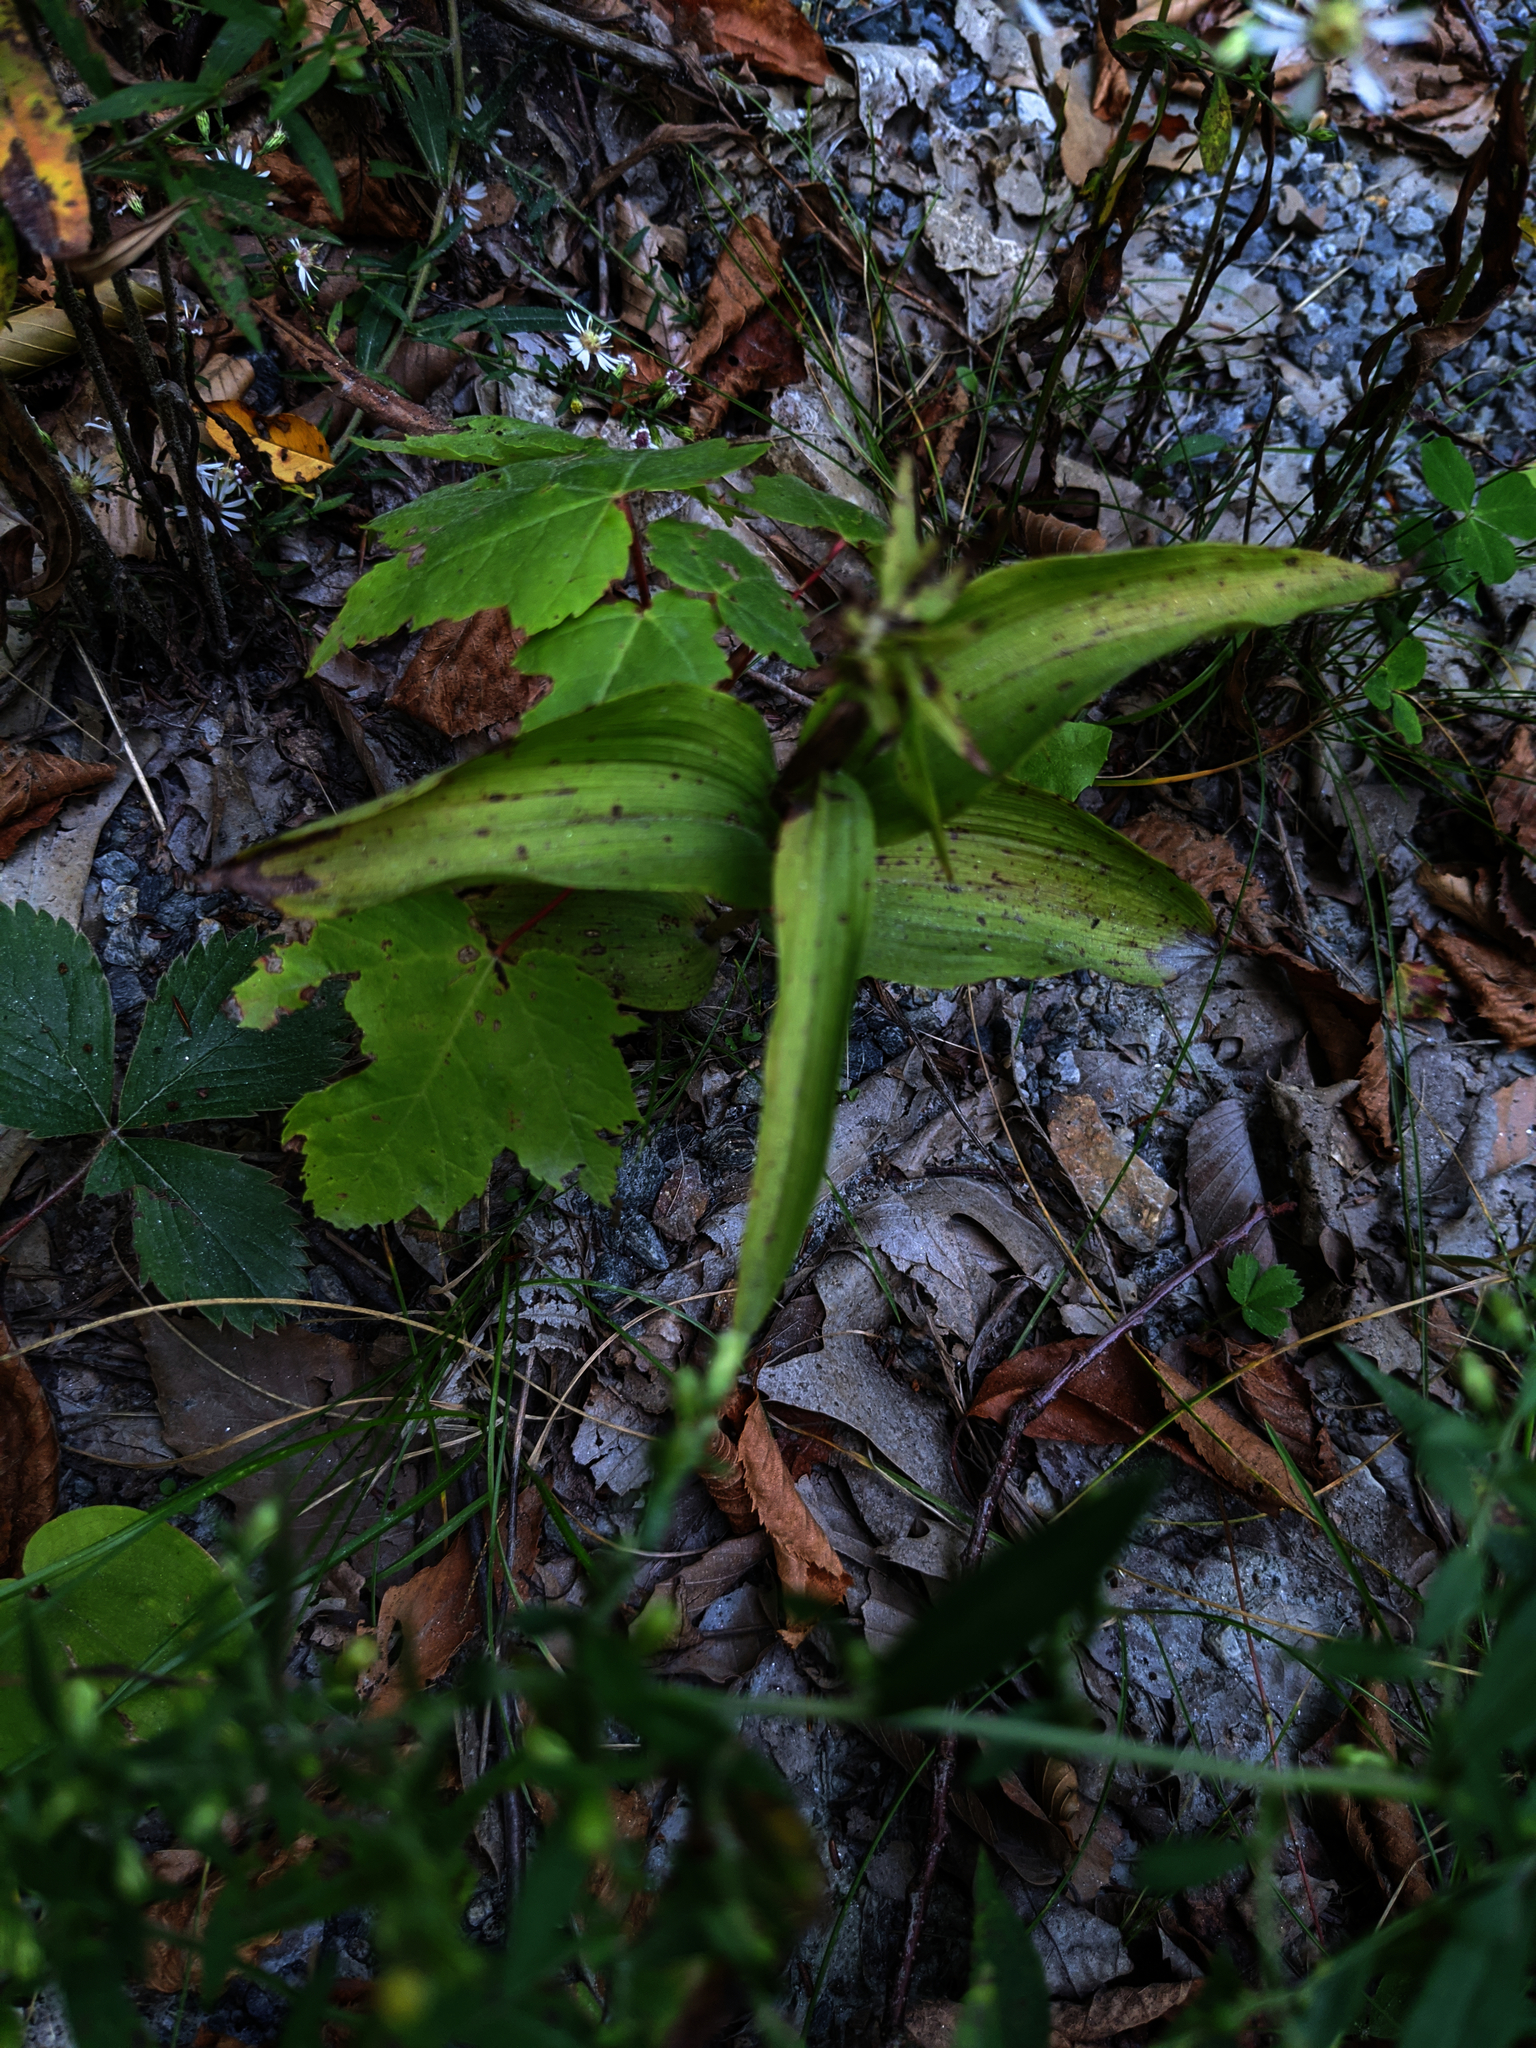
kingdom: Plantae
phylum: Tracheophyta
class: Liliopsida
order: Asparagales
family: Orchidaceae
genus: Epipactis
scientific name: Epipactis helleborine
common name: Broad-leaved helleborine
